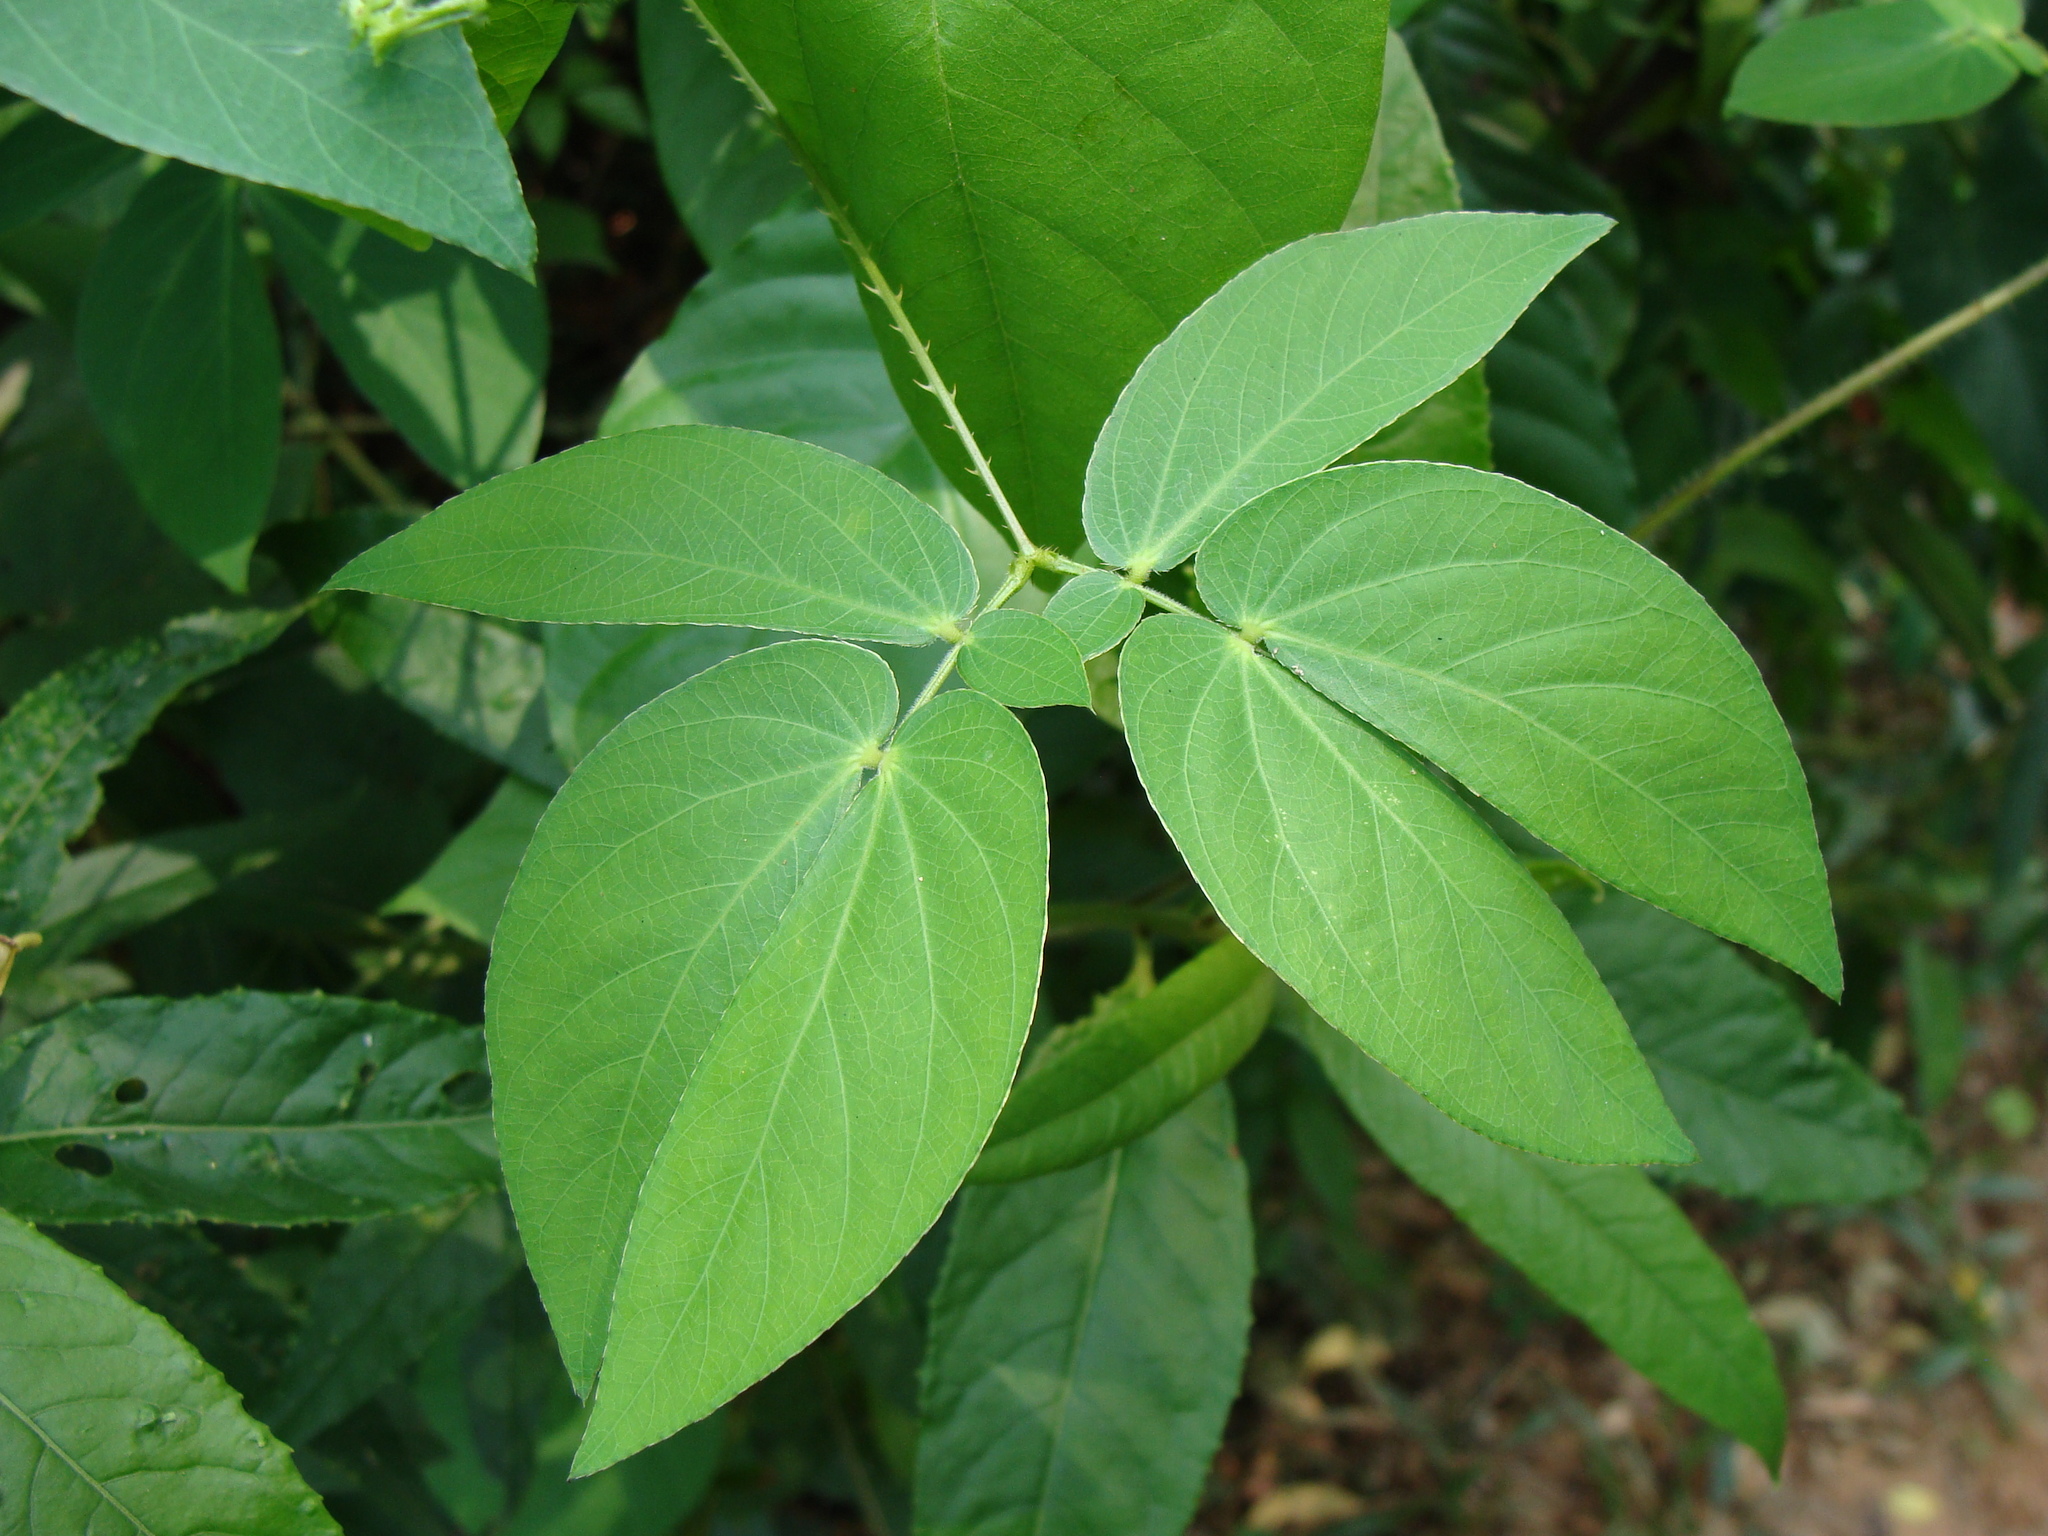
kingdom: Plantae
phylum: Tracheophyta
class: Magnoliopsida
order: Fabales
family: Fabaceae
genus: Mimosa
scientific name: Mimosa albida
